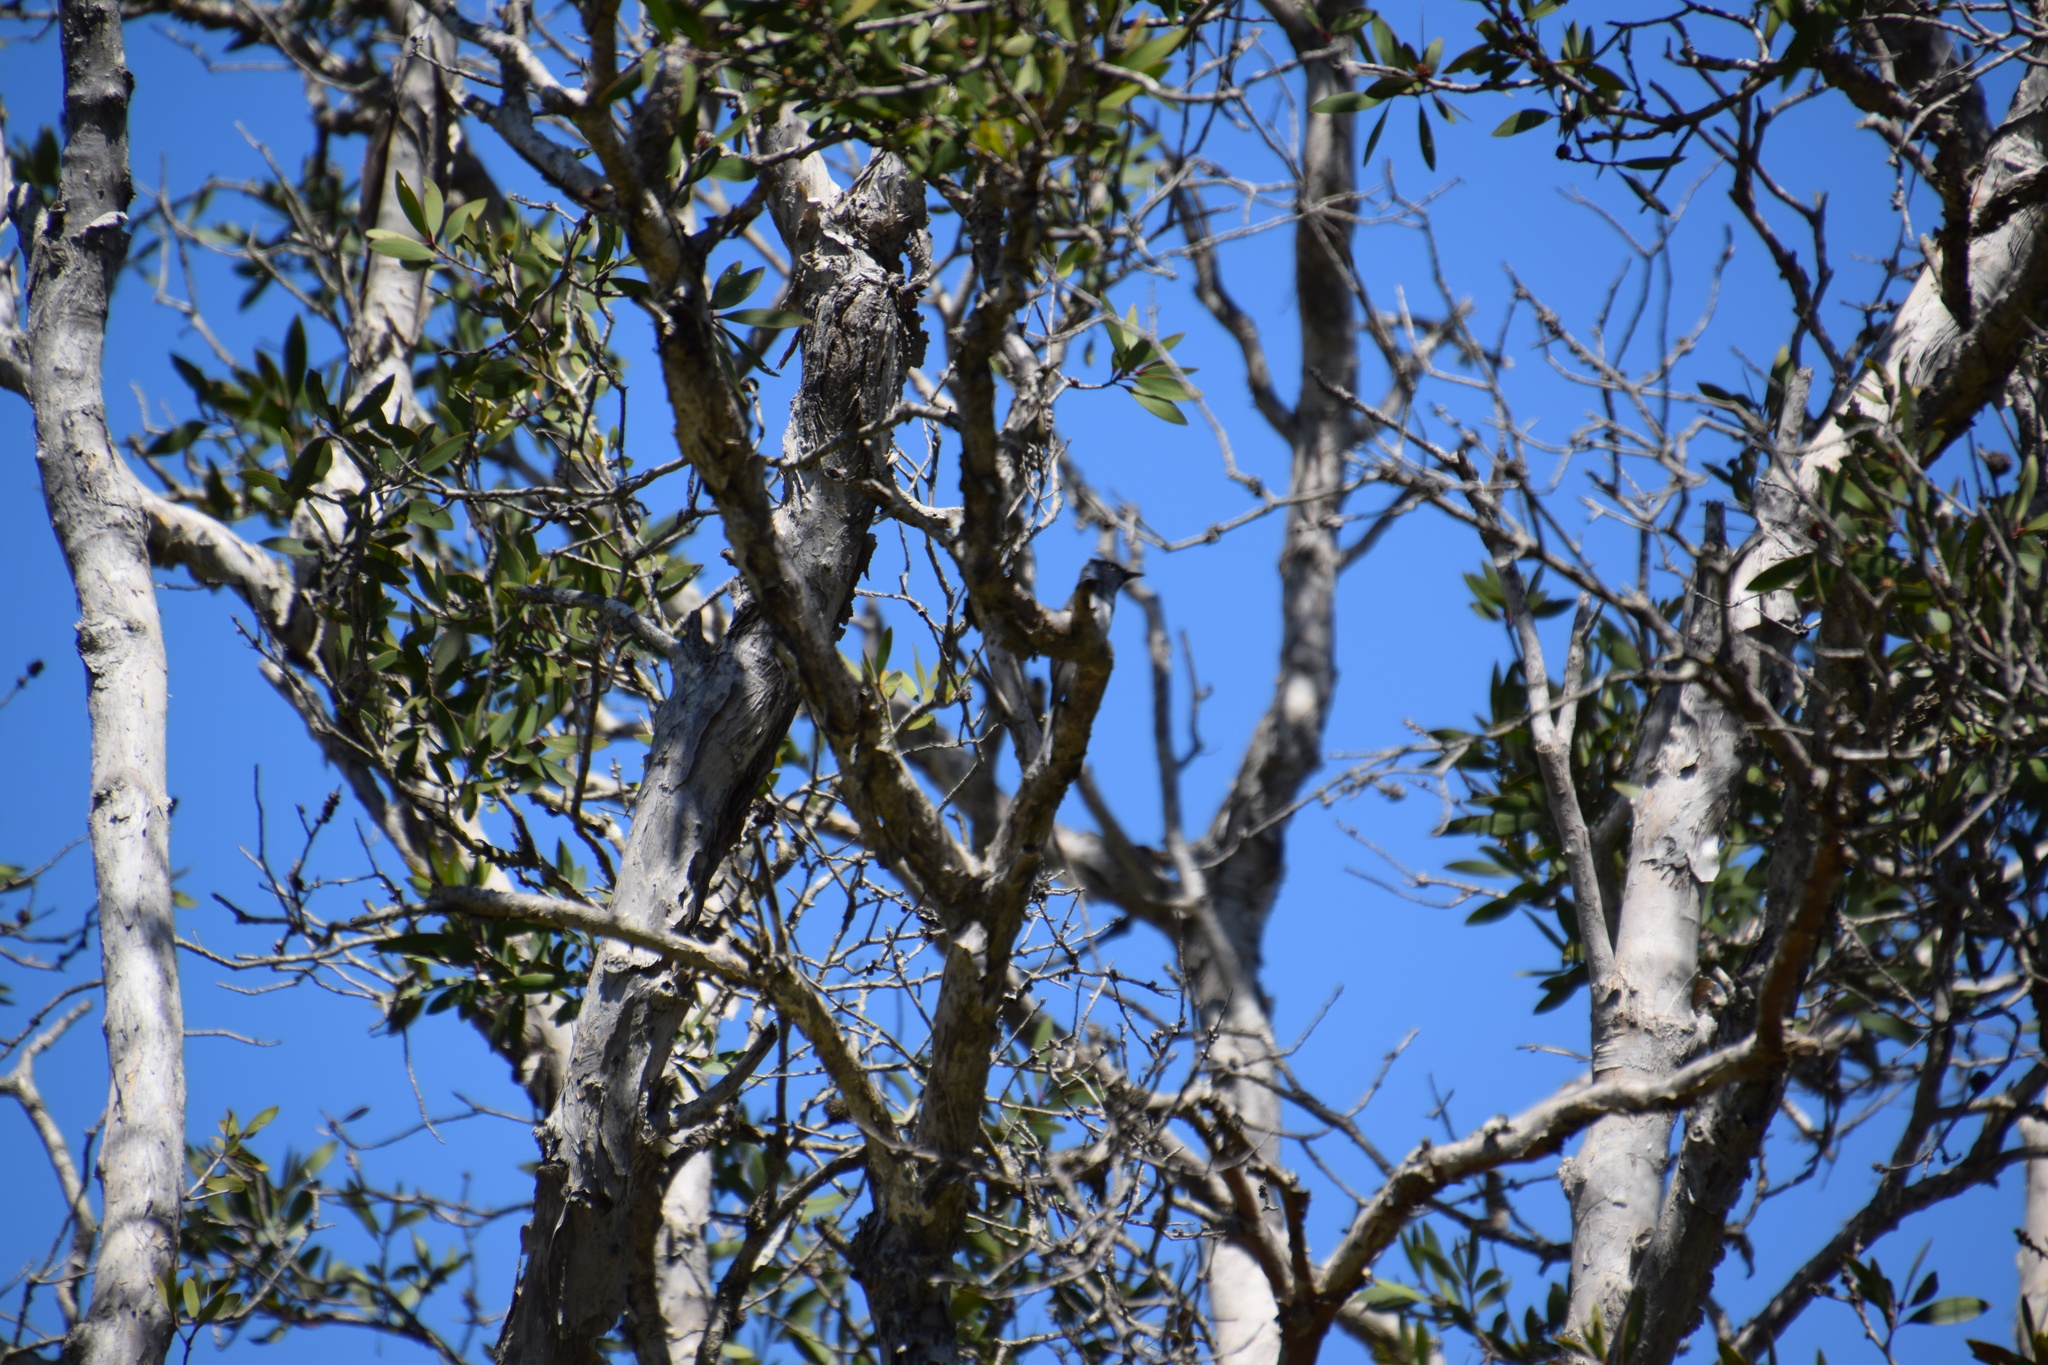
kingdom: Animalia
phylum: Chordata
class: Aves
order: Passeriformes
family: Monarchidae
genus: Myiagra
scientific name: Myiagra rubecula
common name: Leaden flycatcher
